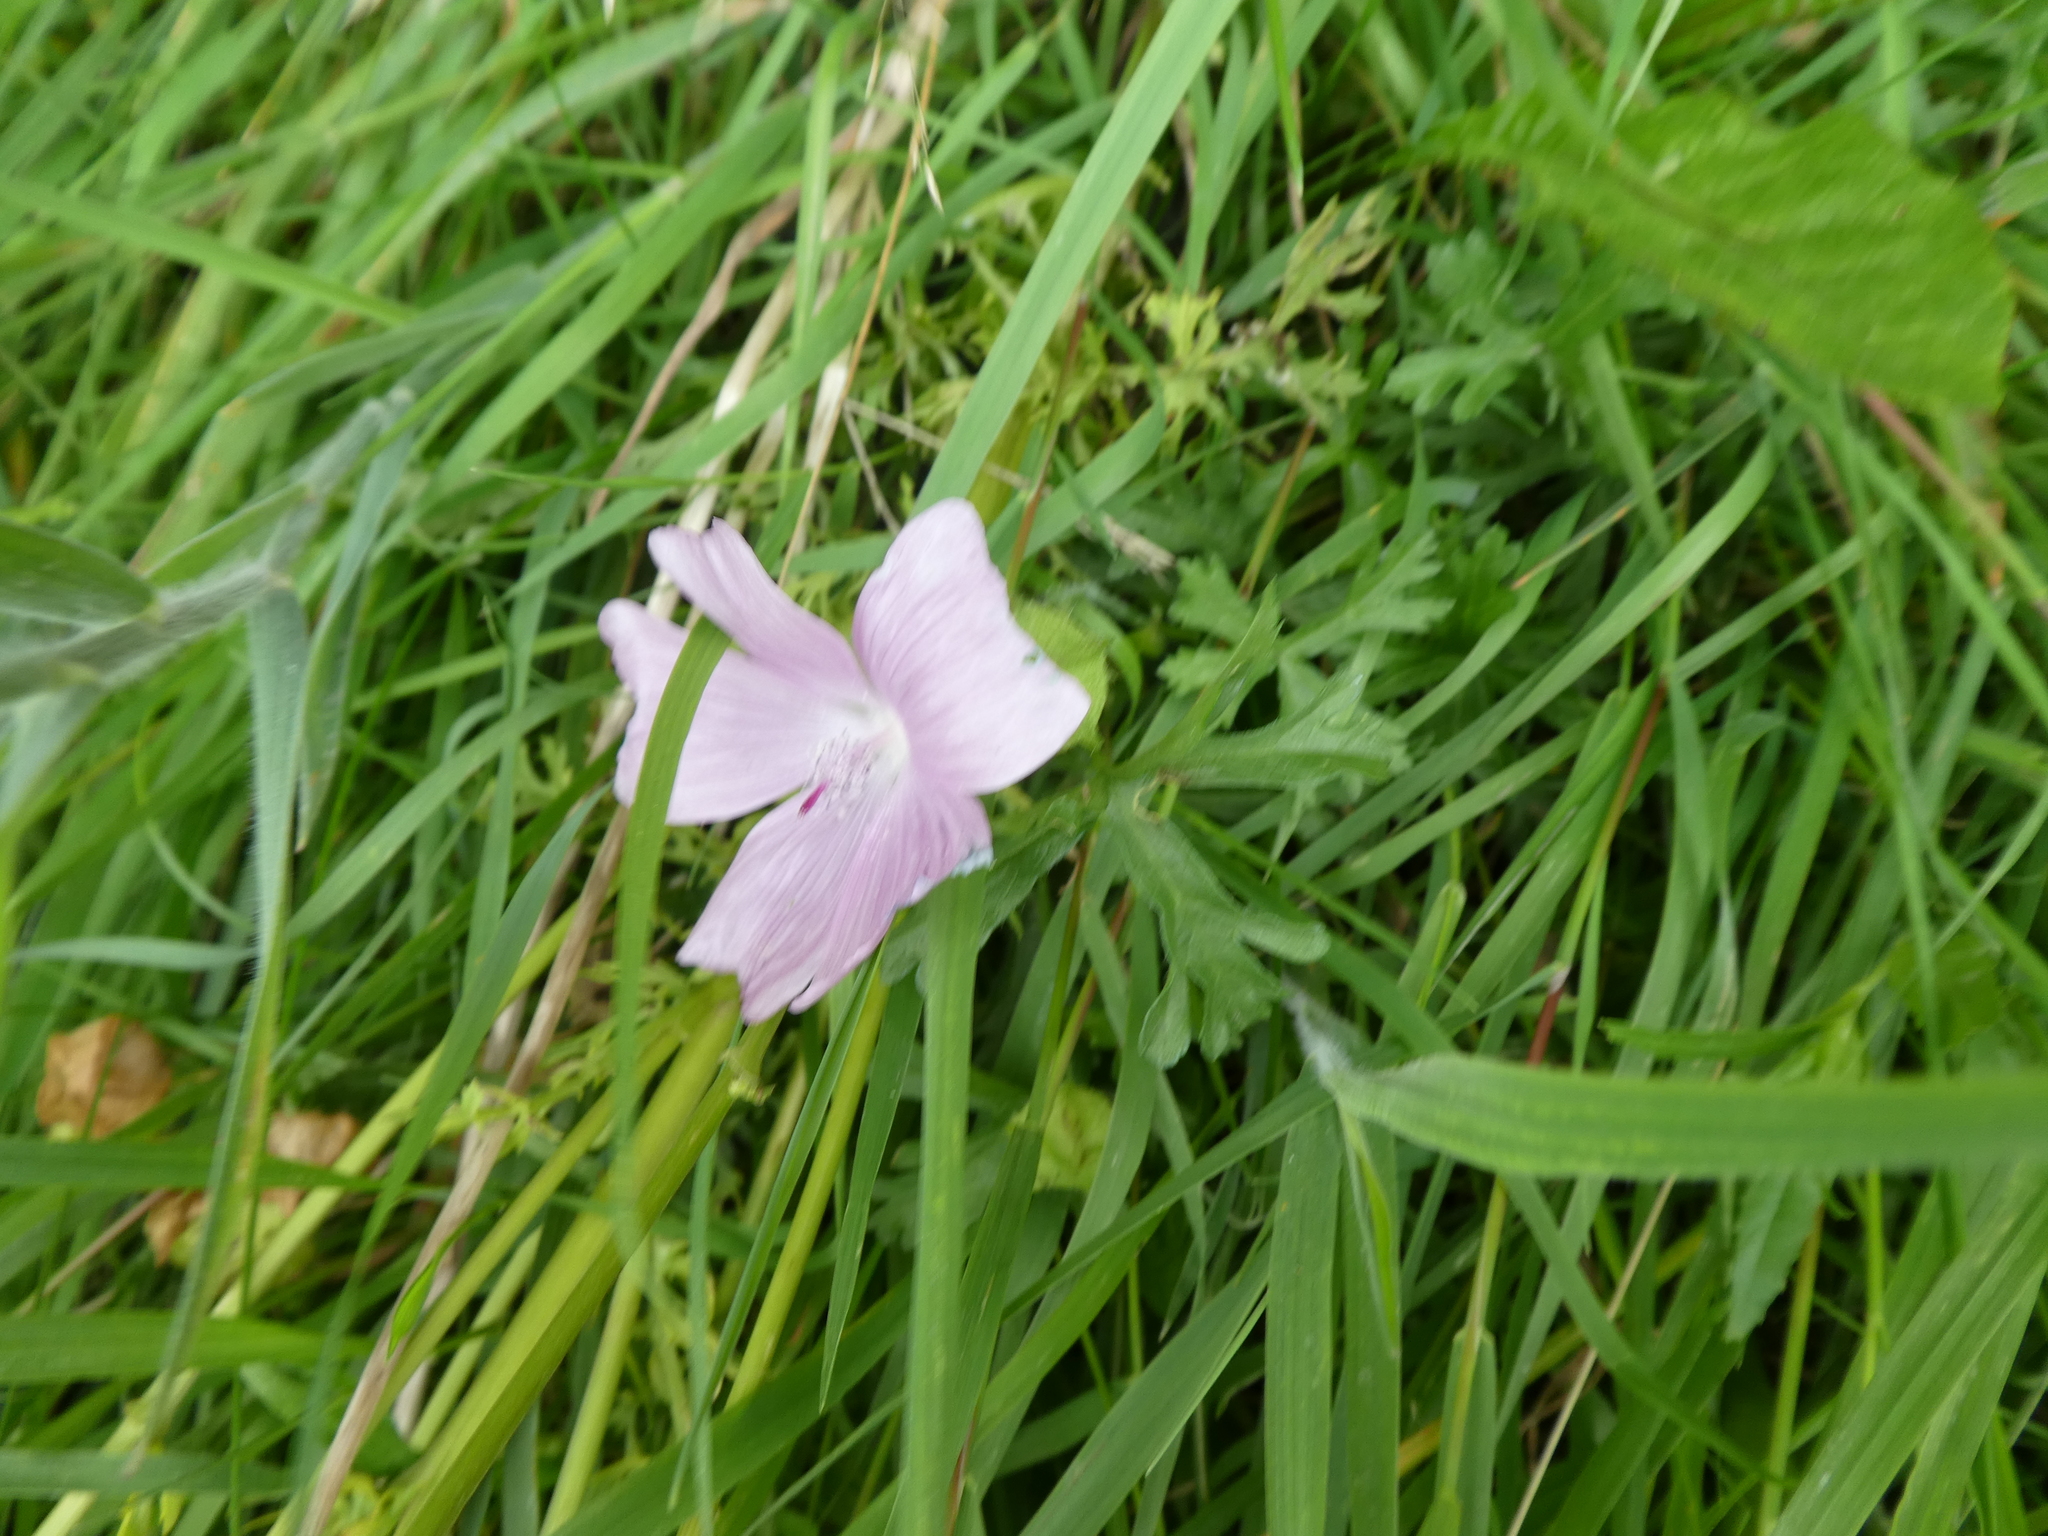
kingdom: Plantae
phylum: Tracheophyta
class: Magnoliopsida
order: Malvales
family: Malvaceae
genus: Malva
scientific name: Malva moschata
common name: Musk mallow
